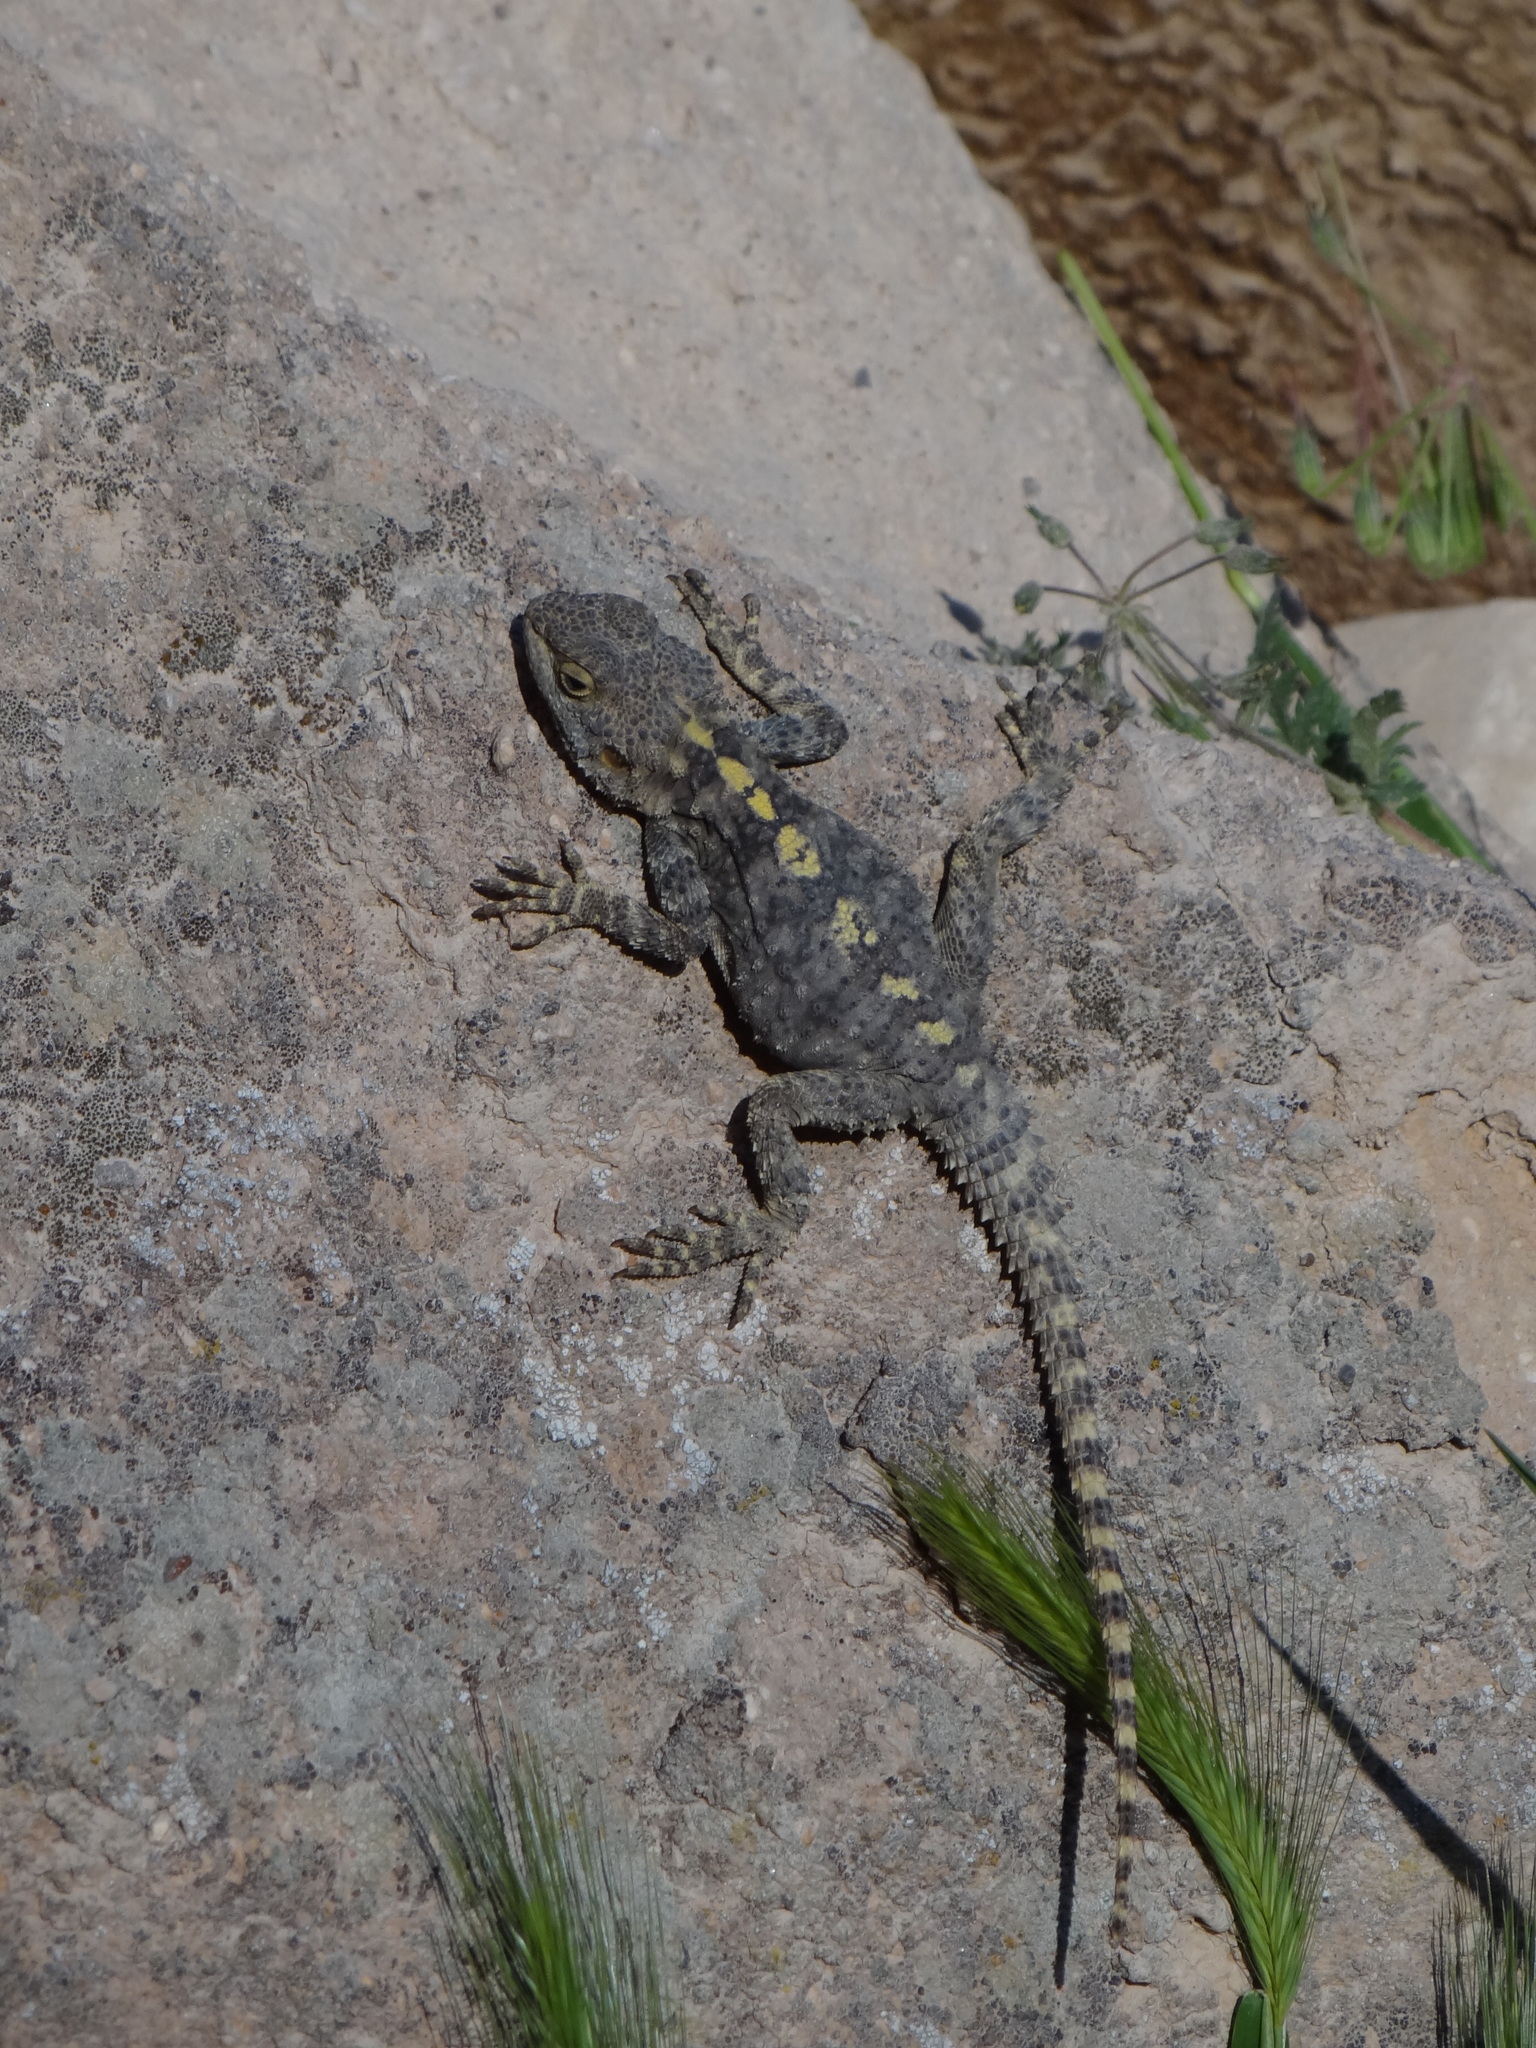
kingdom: Animalia
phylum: Chordata
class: Squamata
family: Agamidae
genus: Stellagama
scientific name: Stellagama stellio
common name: Starred agama
